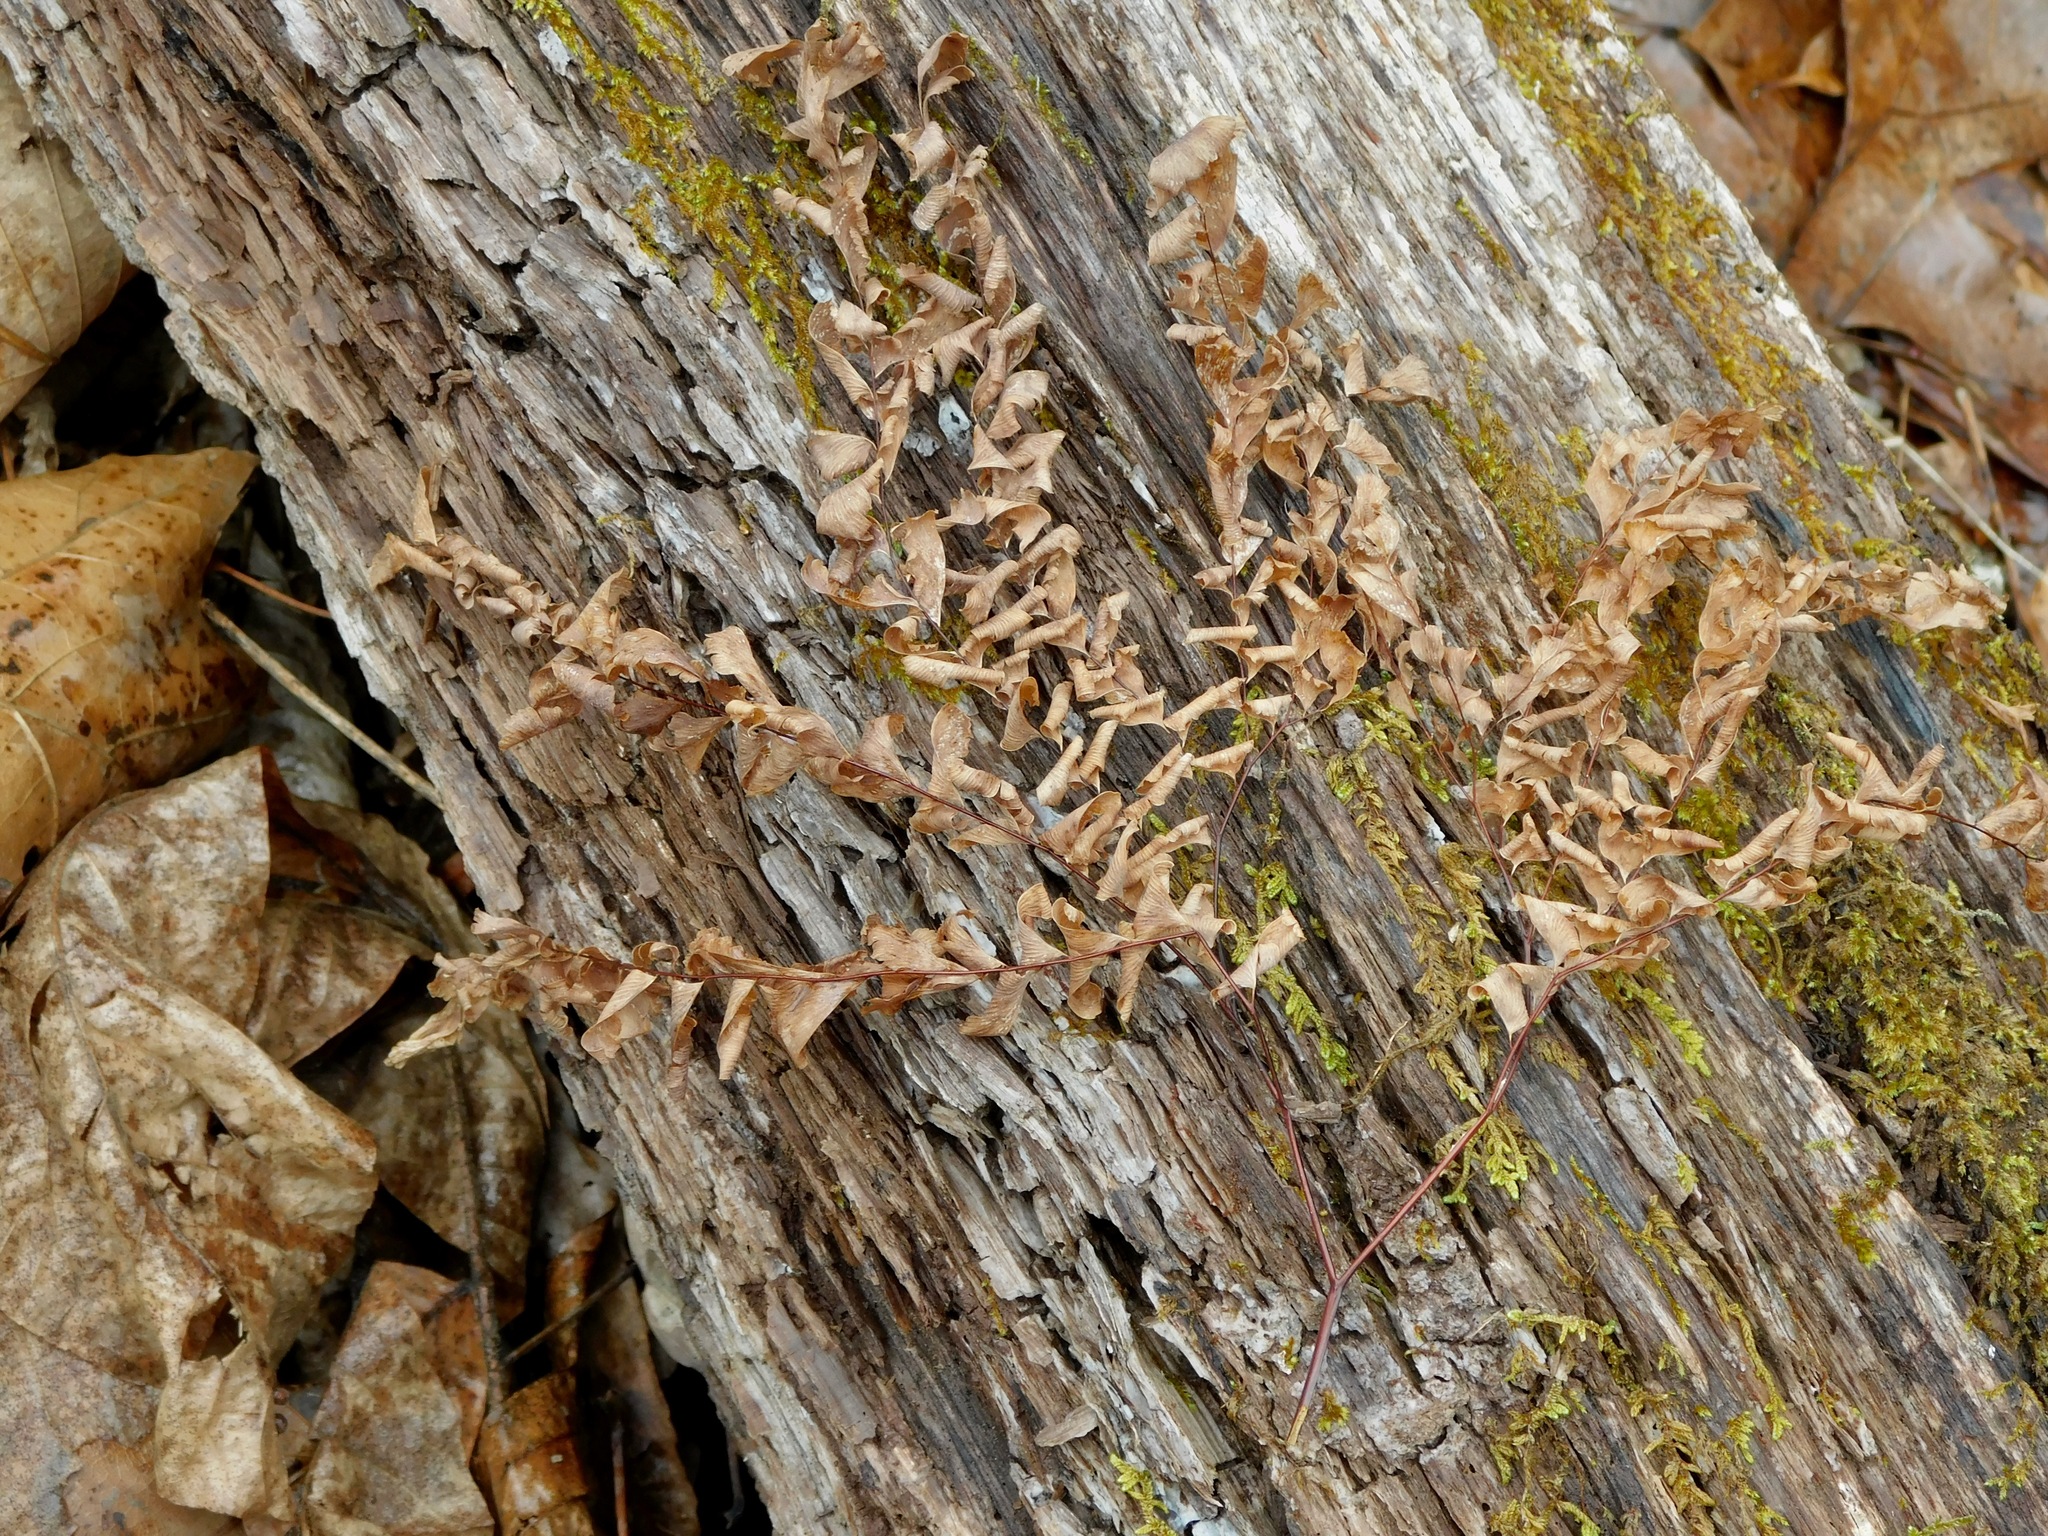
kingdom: Plantae
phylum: Tracheophyta
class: Polypodiopsida
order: Polypodiales
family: Pteridaceae
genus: Adiantum
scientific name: Adiantum pedatum
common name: Five-finger fern
